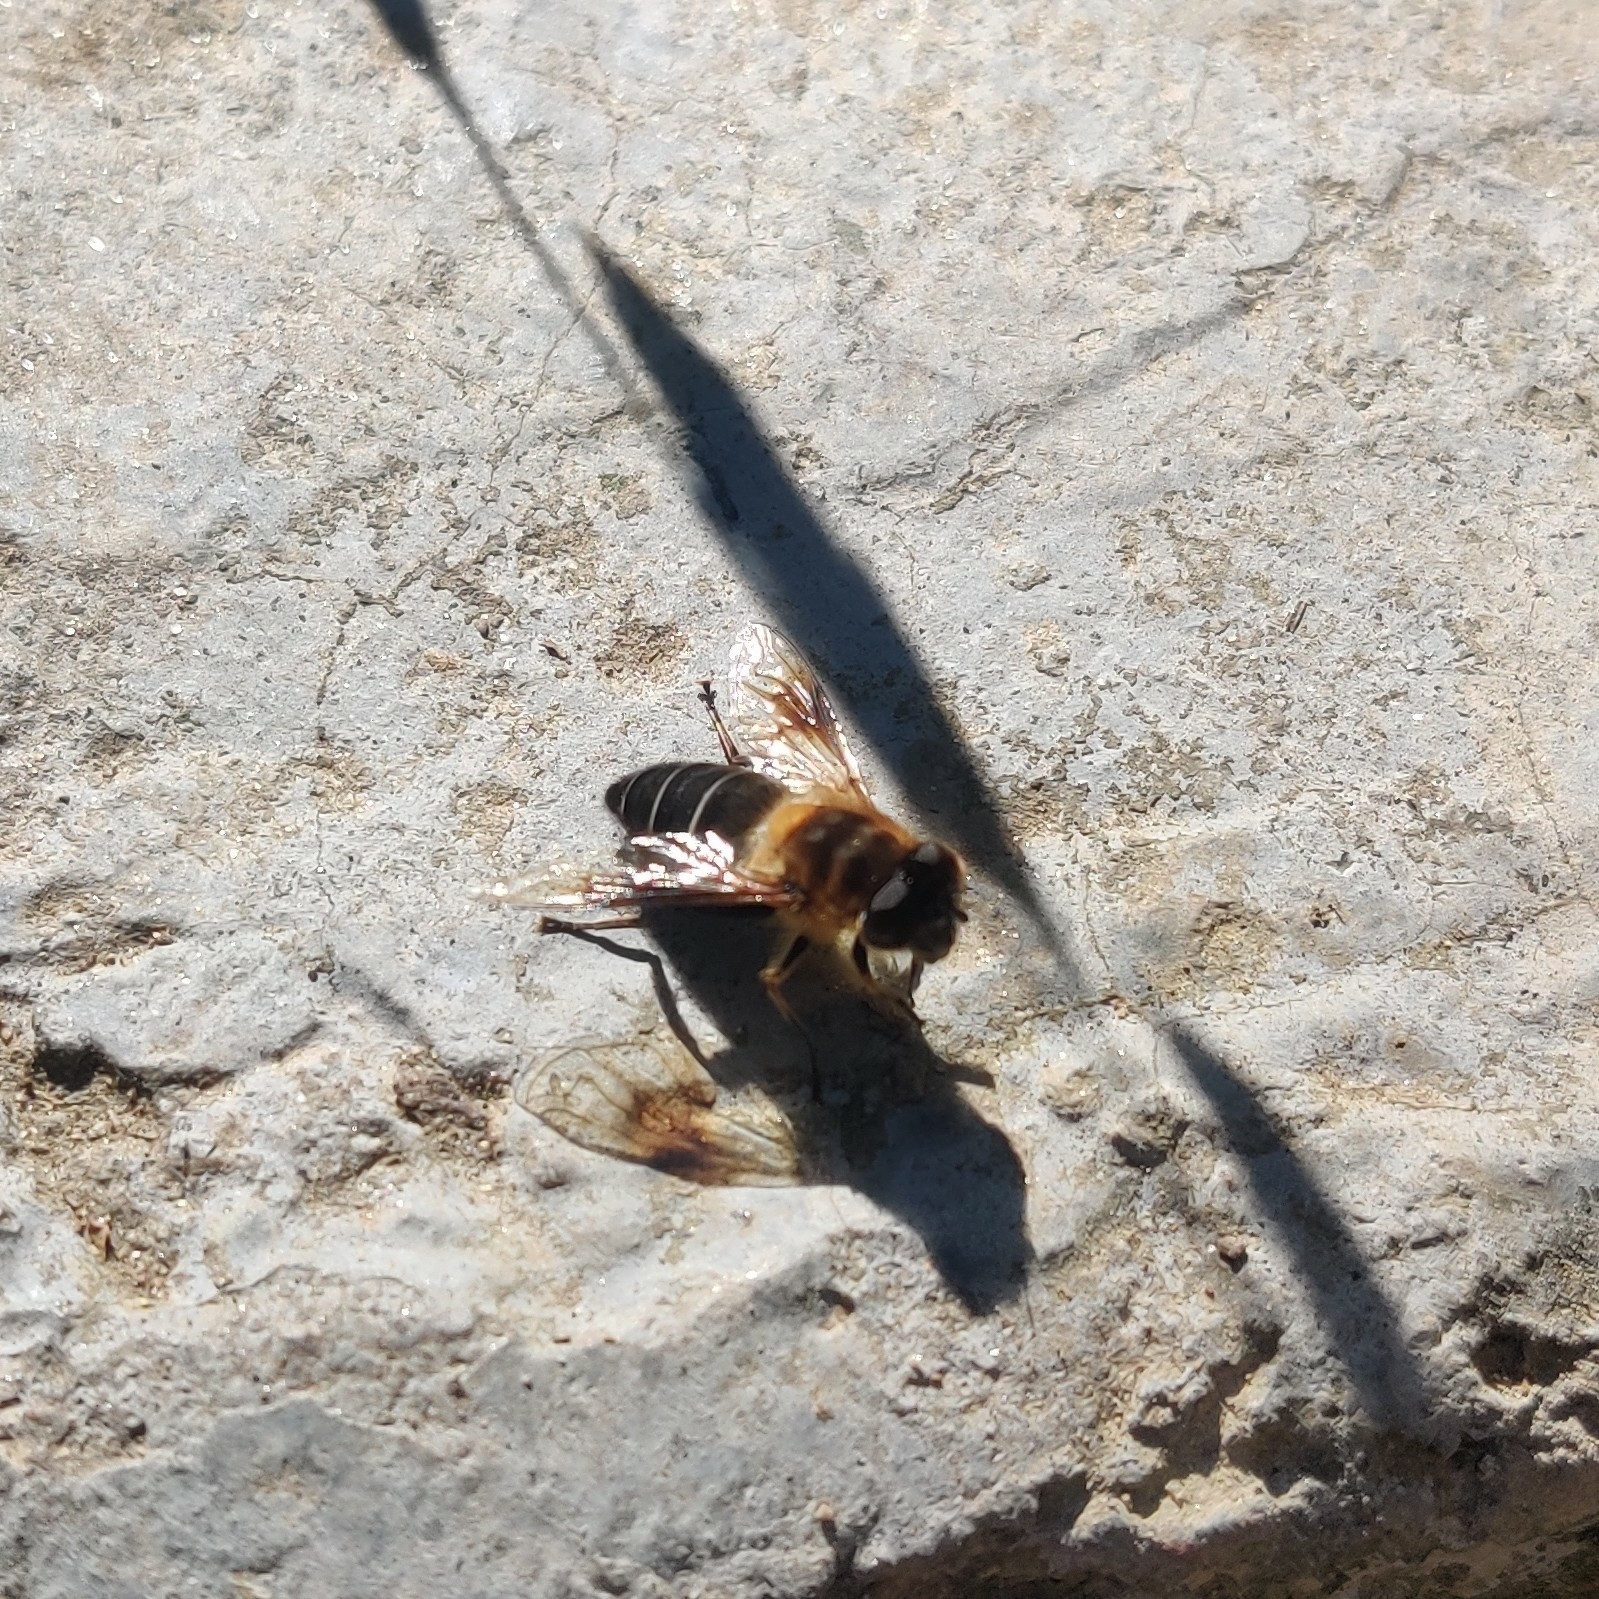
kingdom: Animalia
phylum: Arthropoda
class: Insecta
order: Diptera
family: Syrphidae
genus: Eristalis
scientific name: Eristalis himalayensis
